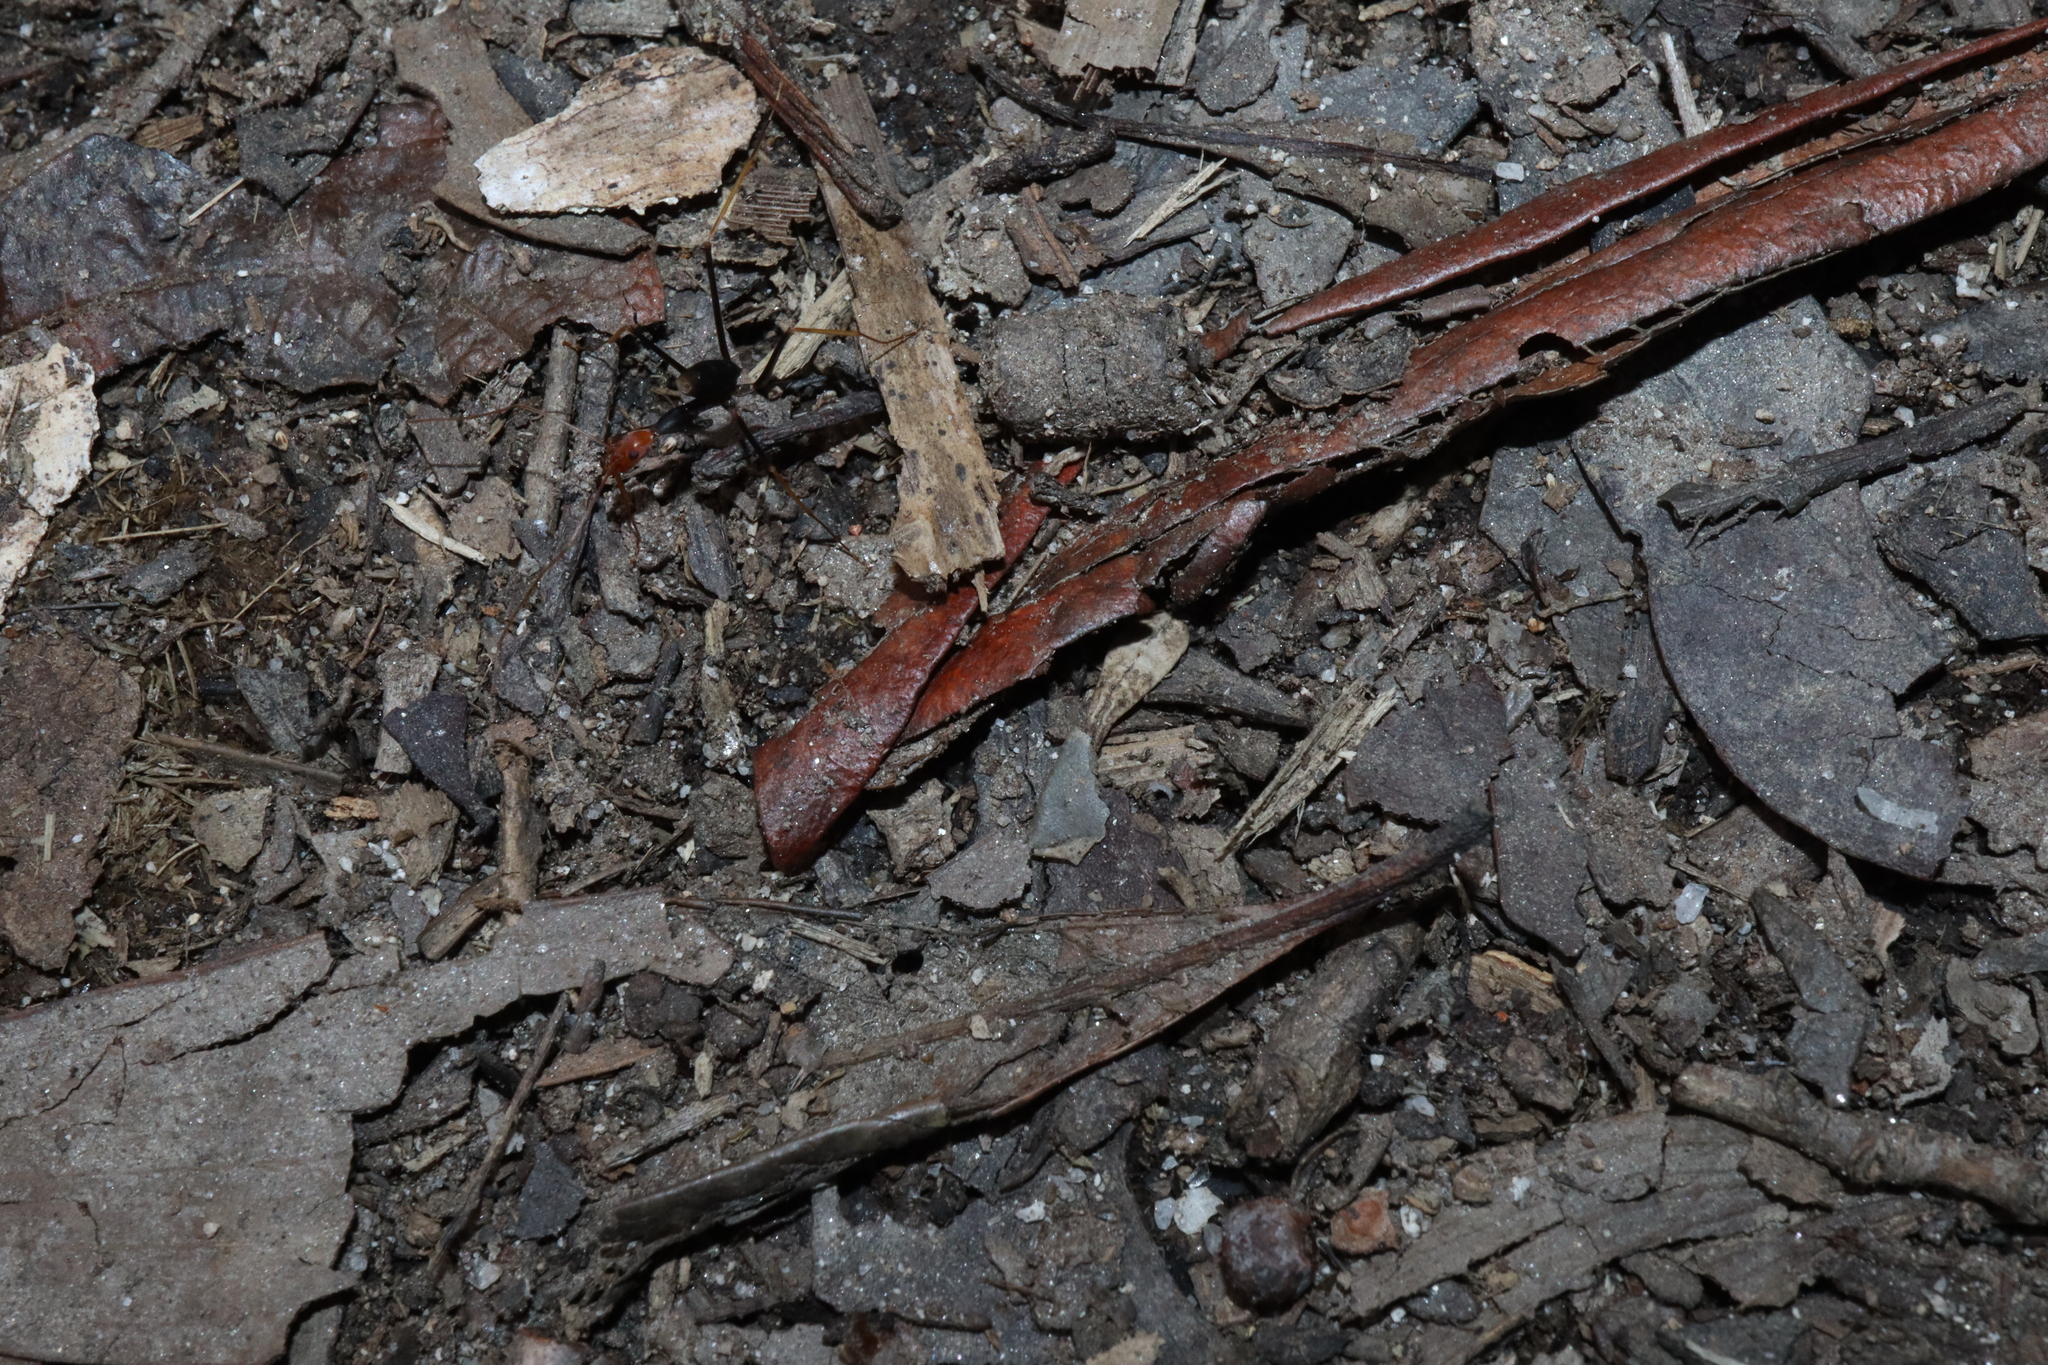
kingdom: Animalia
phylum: Arthropoda
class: Insecta
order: Hymenoptera
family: Formicidae
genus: Leptomyrmex
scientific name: Leptomyrmex ruficeps
